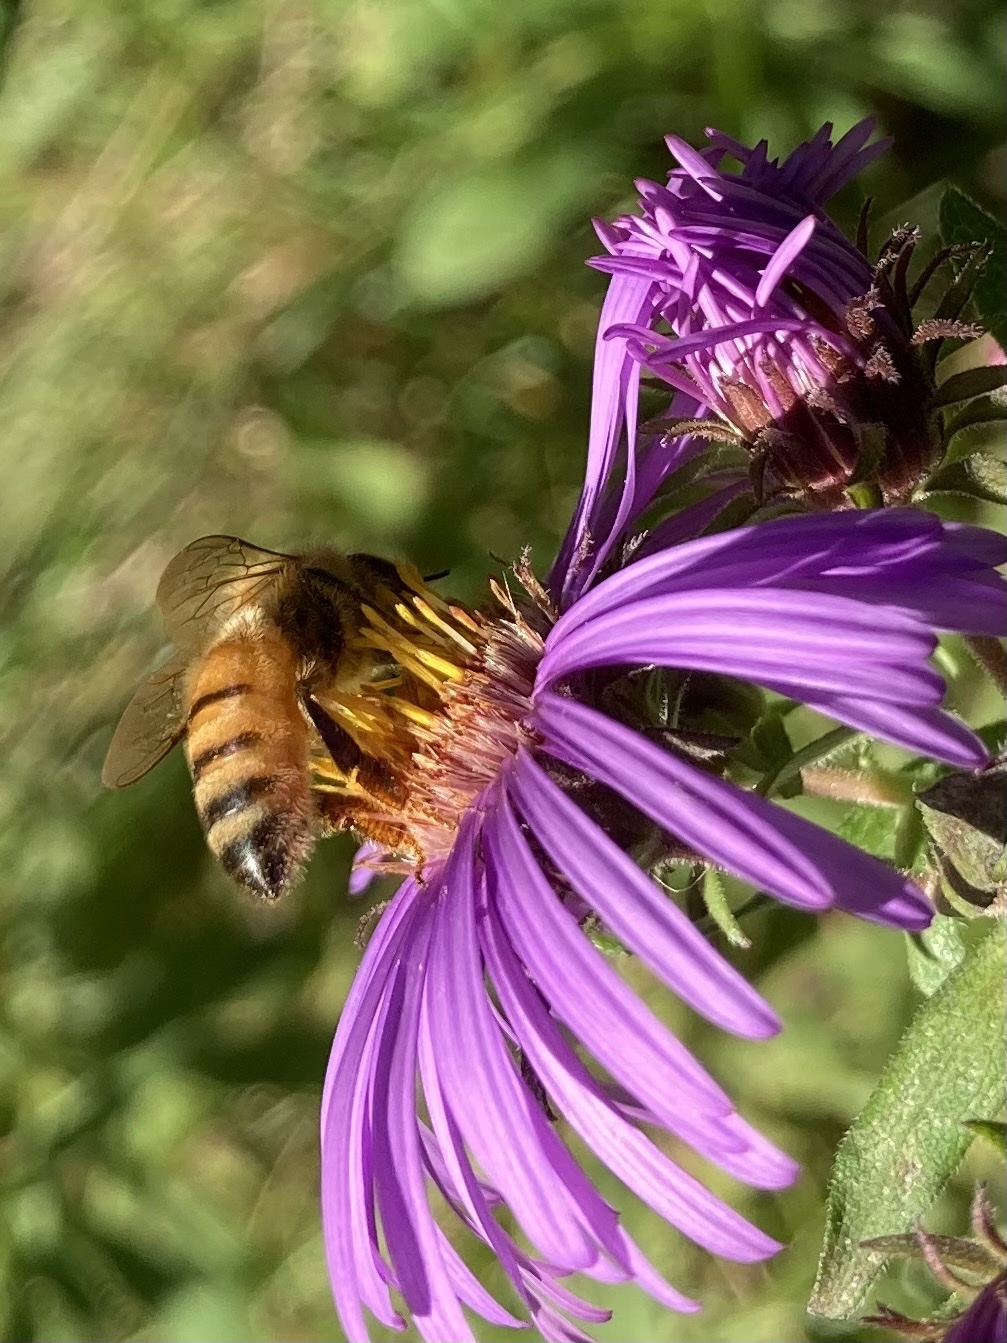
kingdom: Animalia
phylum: Arthropoda
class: Insecta
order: Hymenoptera
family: Apidae
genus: Apis
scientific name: Apis mellifera
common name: Honey bee
